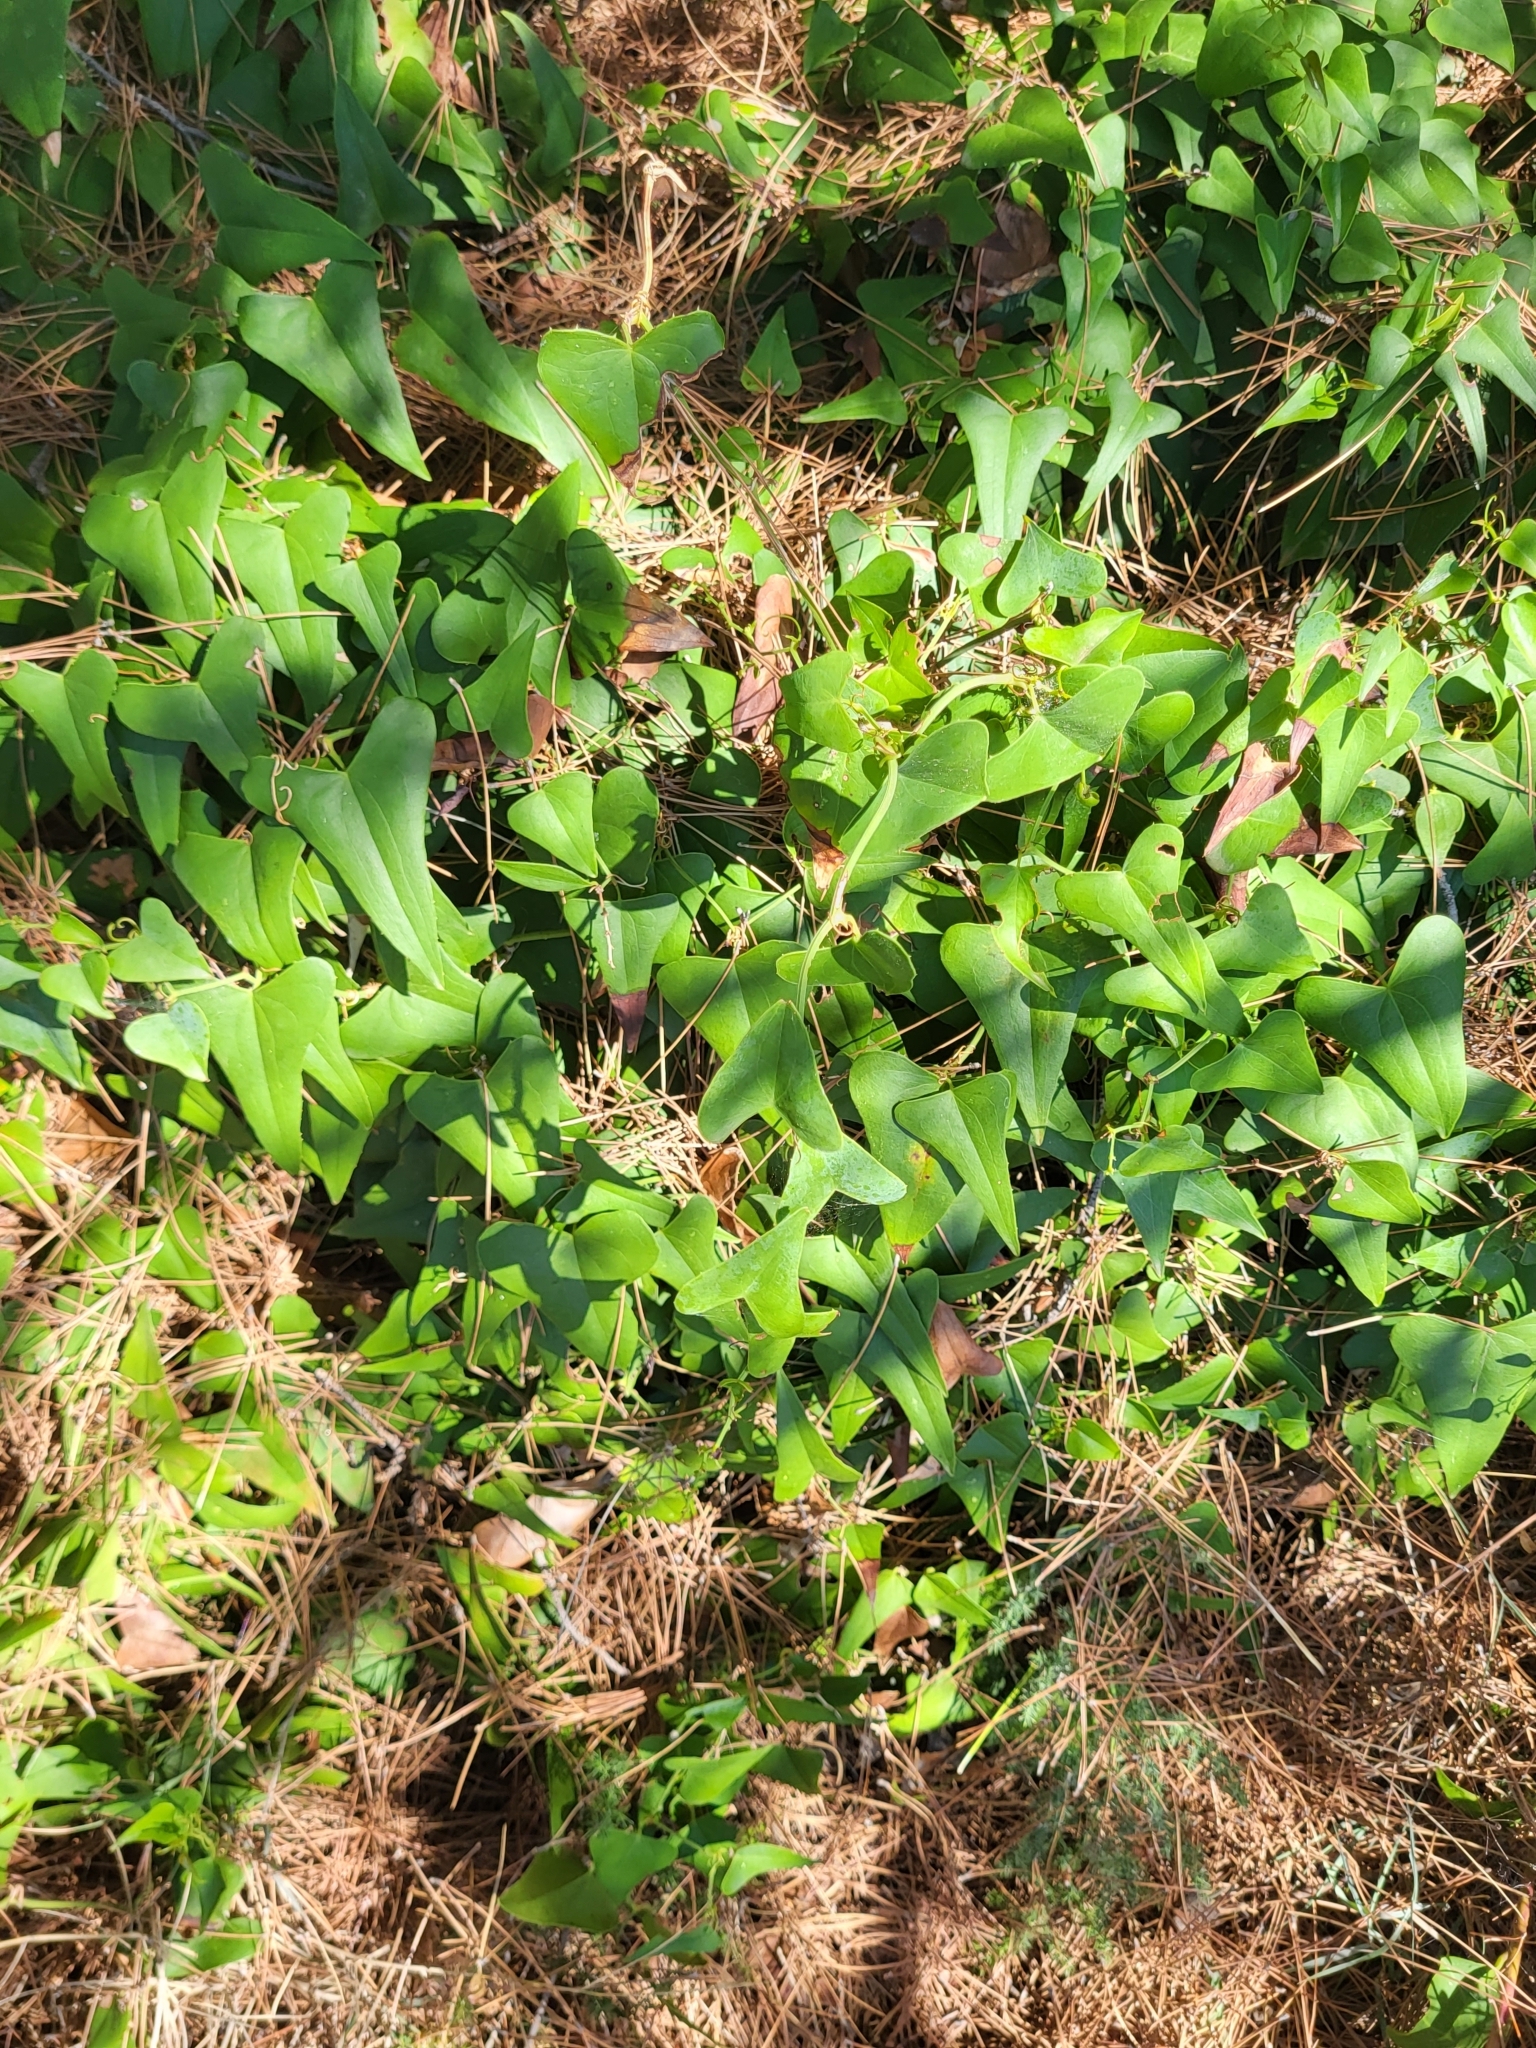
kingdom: Plantae
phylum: Tracheophyta
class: Liliopsida
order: Liliales
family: Smilacaceae
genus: Smilax
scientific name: Smilax aspera
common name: Common smilax
